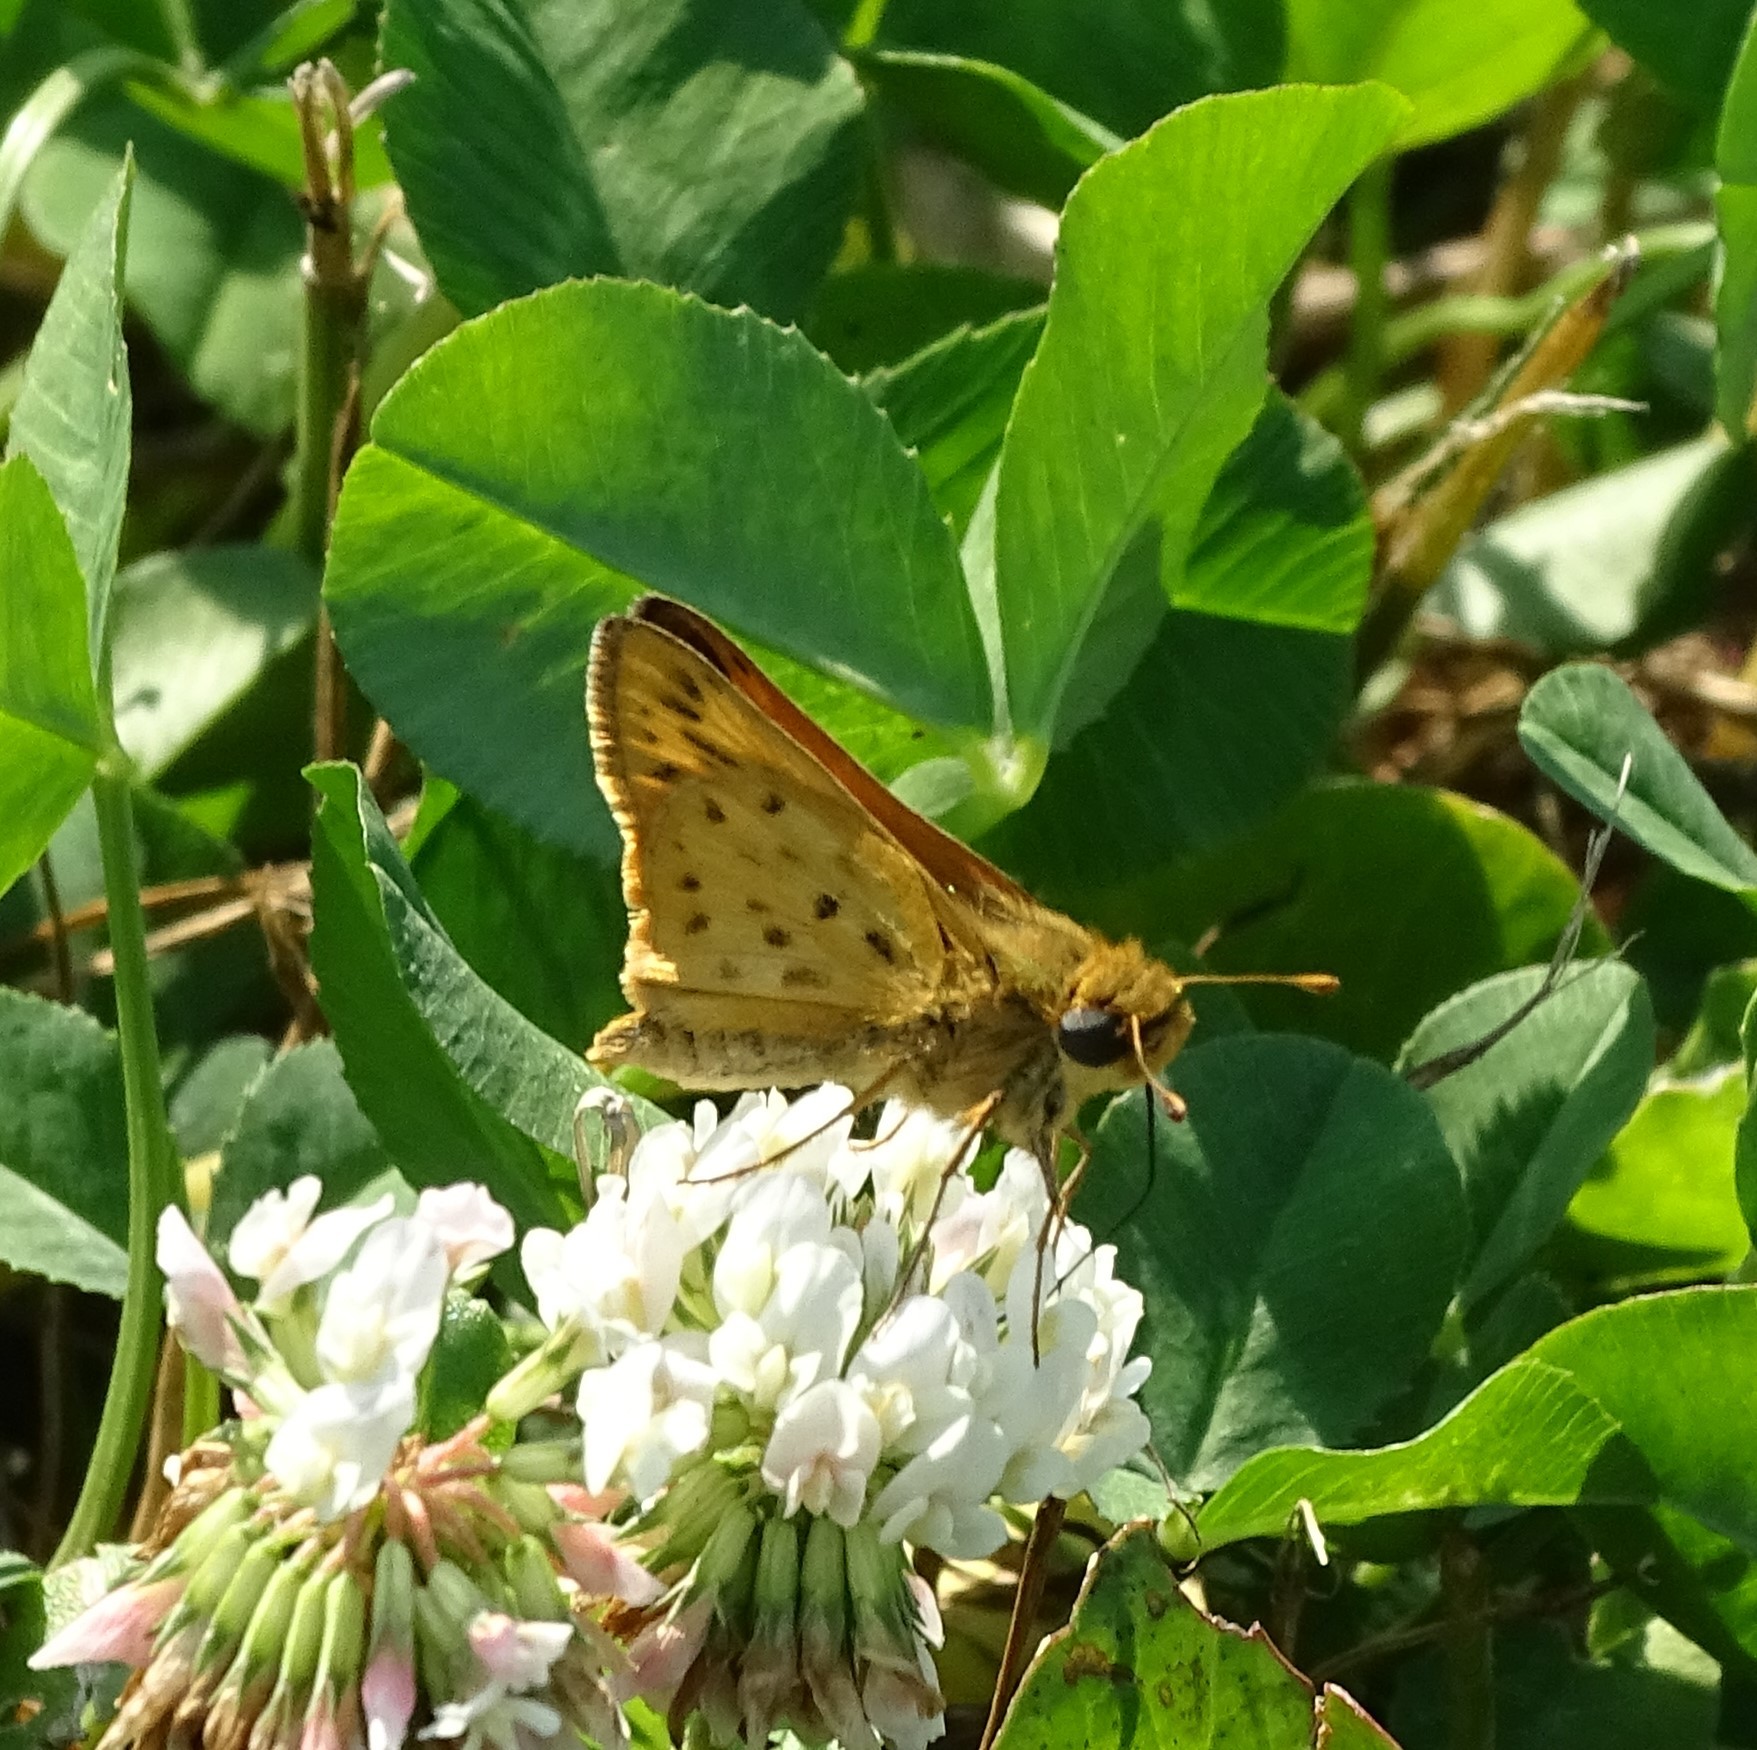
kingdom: Animalia
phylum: Arthropoda
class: Insecta
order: Lepidoptera
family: Hesperiidae
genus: Hylephila
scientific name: Hylephila phyleus
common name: Fiery skipper
